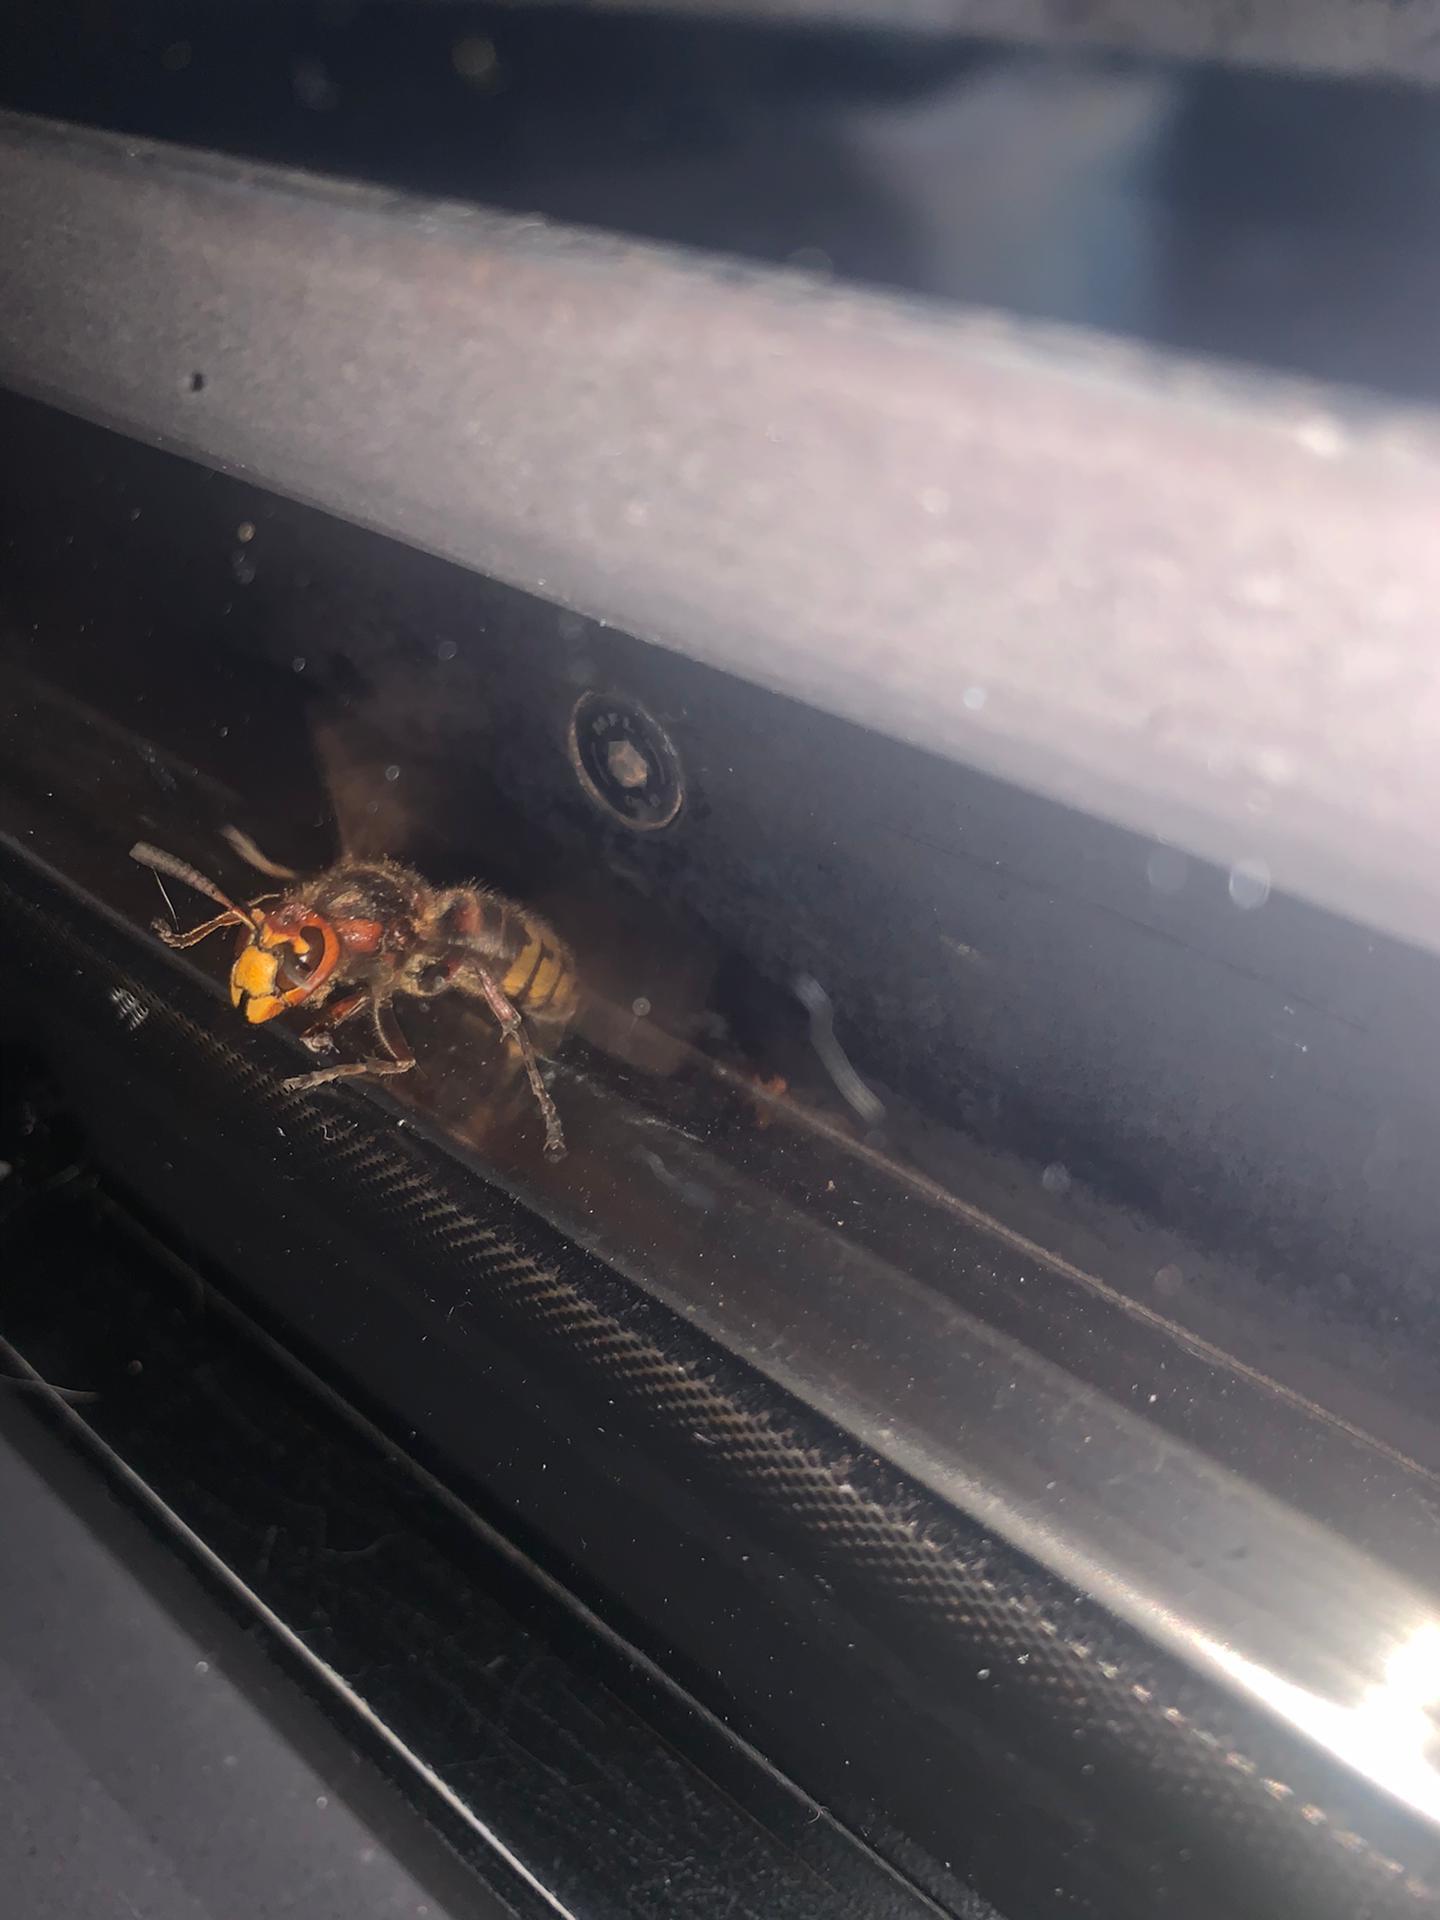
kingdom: Animalia
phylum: Arthropoda
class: Insecta
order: Hymenoptera
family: Vespidae
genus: Vespa
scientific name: Vespa crabro
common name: Hornet
